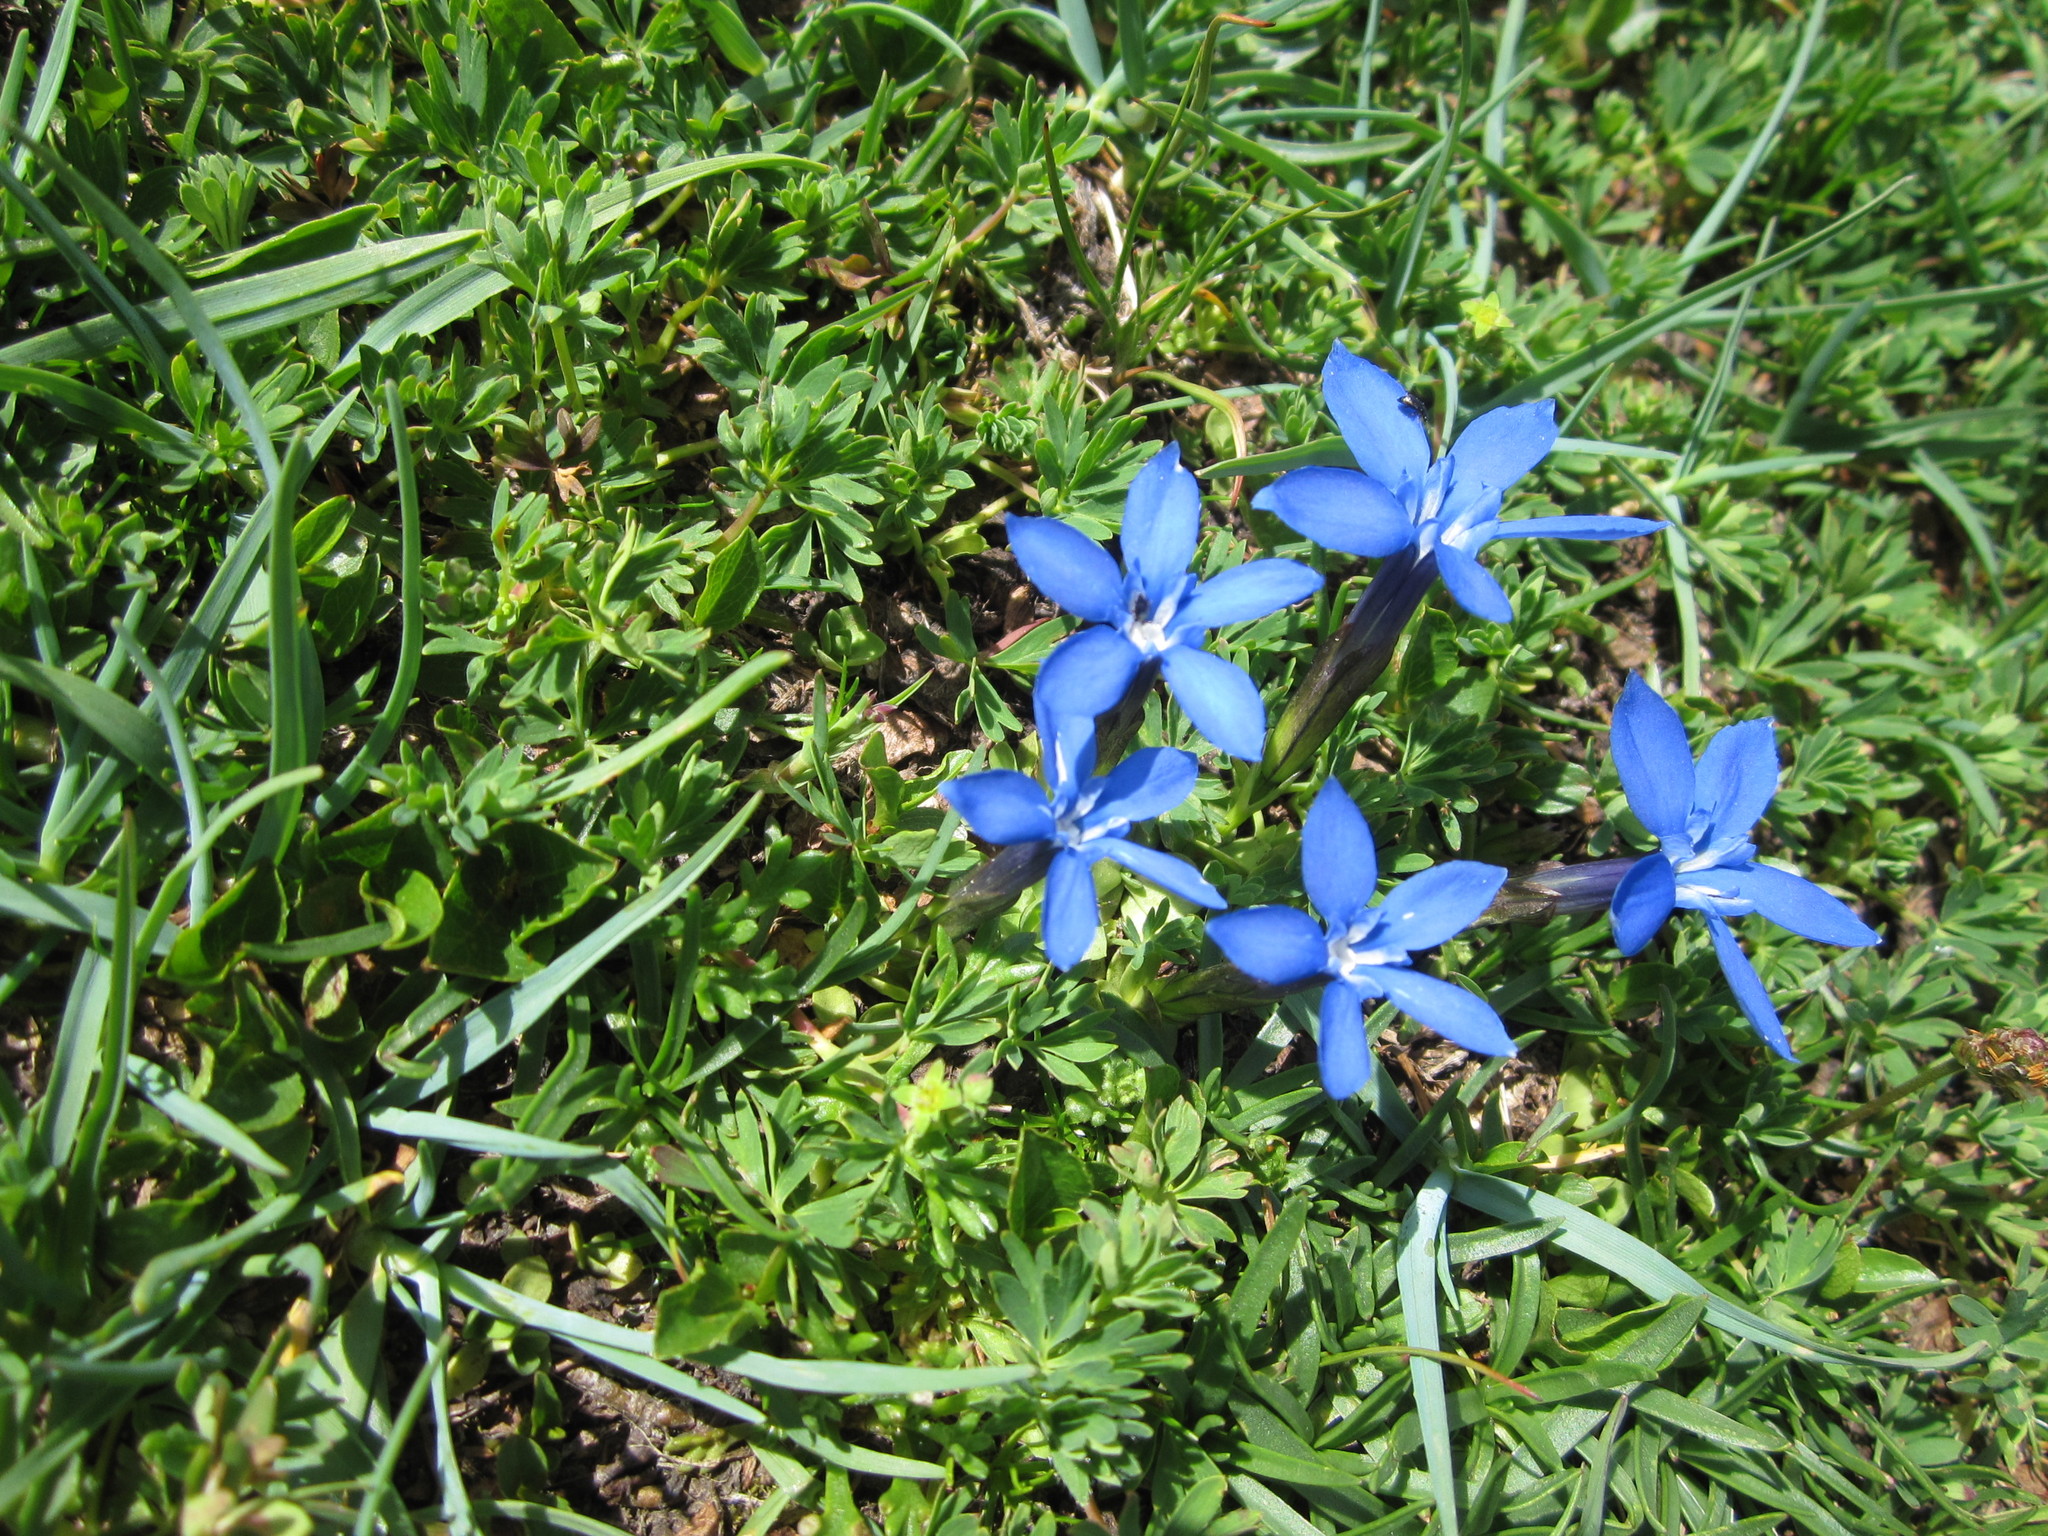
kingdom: Plantae
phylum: Tracheophyta
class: Magnoliopsida
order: Gentianales
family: Gentianaceae
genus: Gentiana
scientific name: Gentiana brachyphylla
